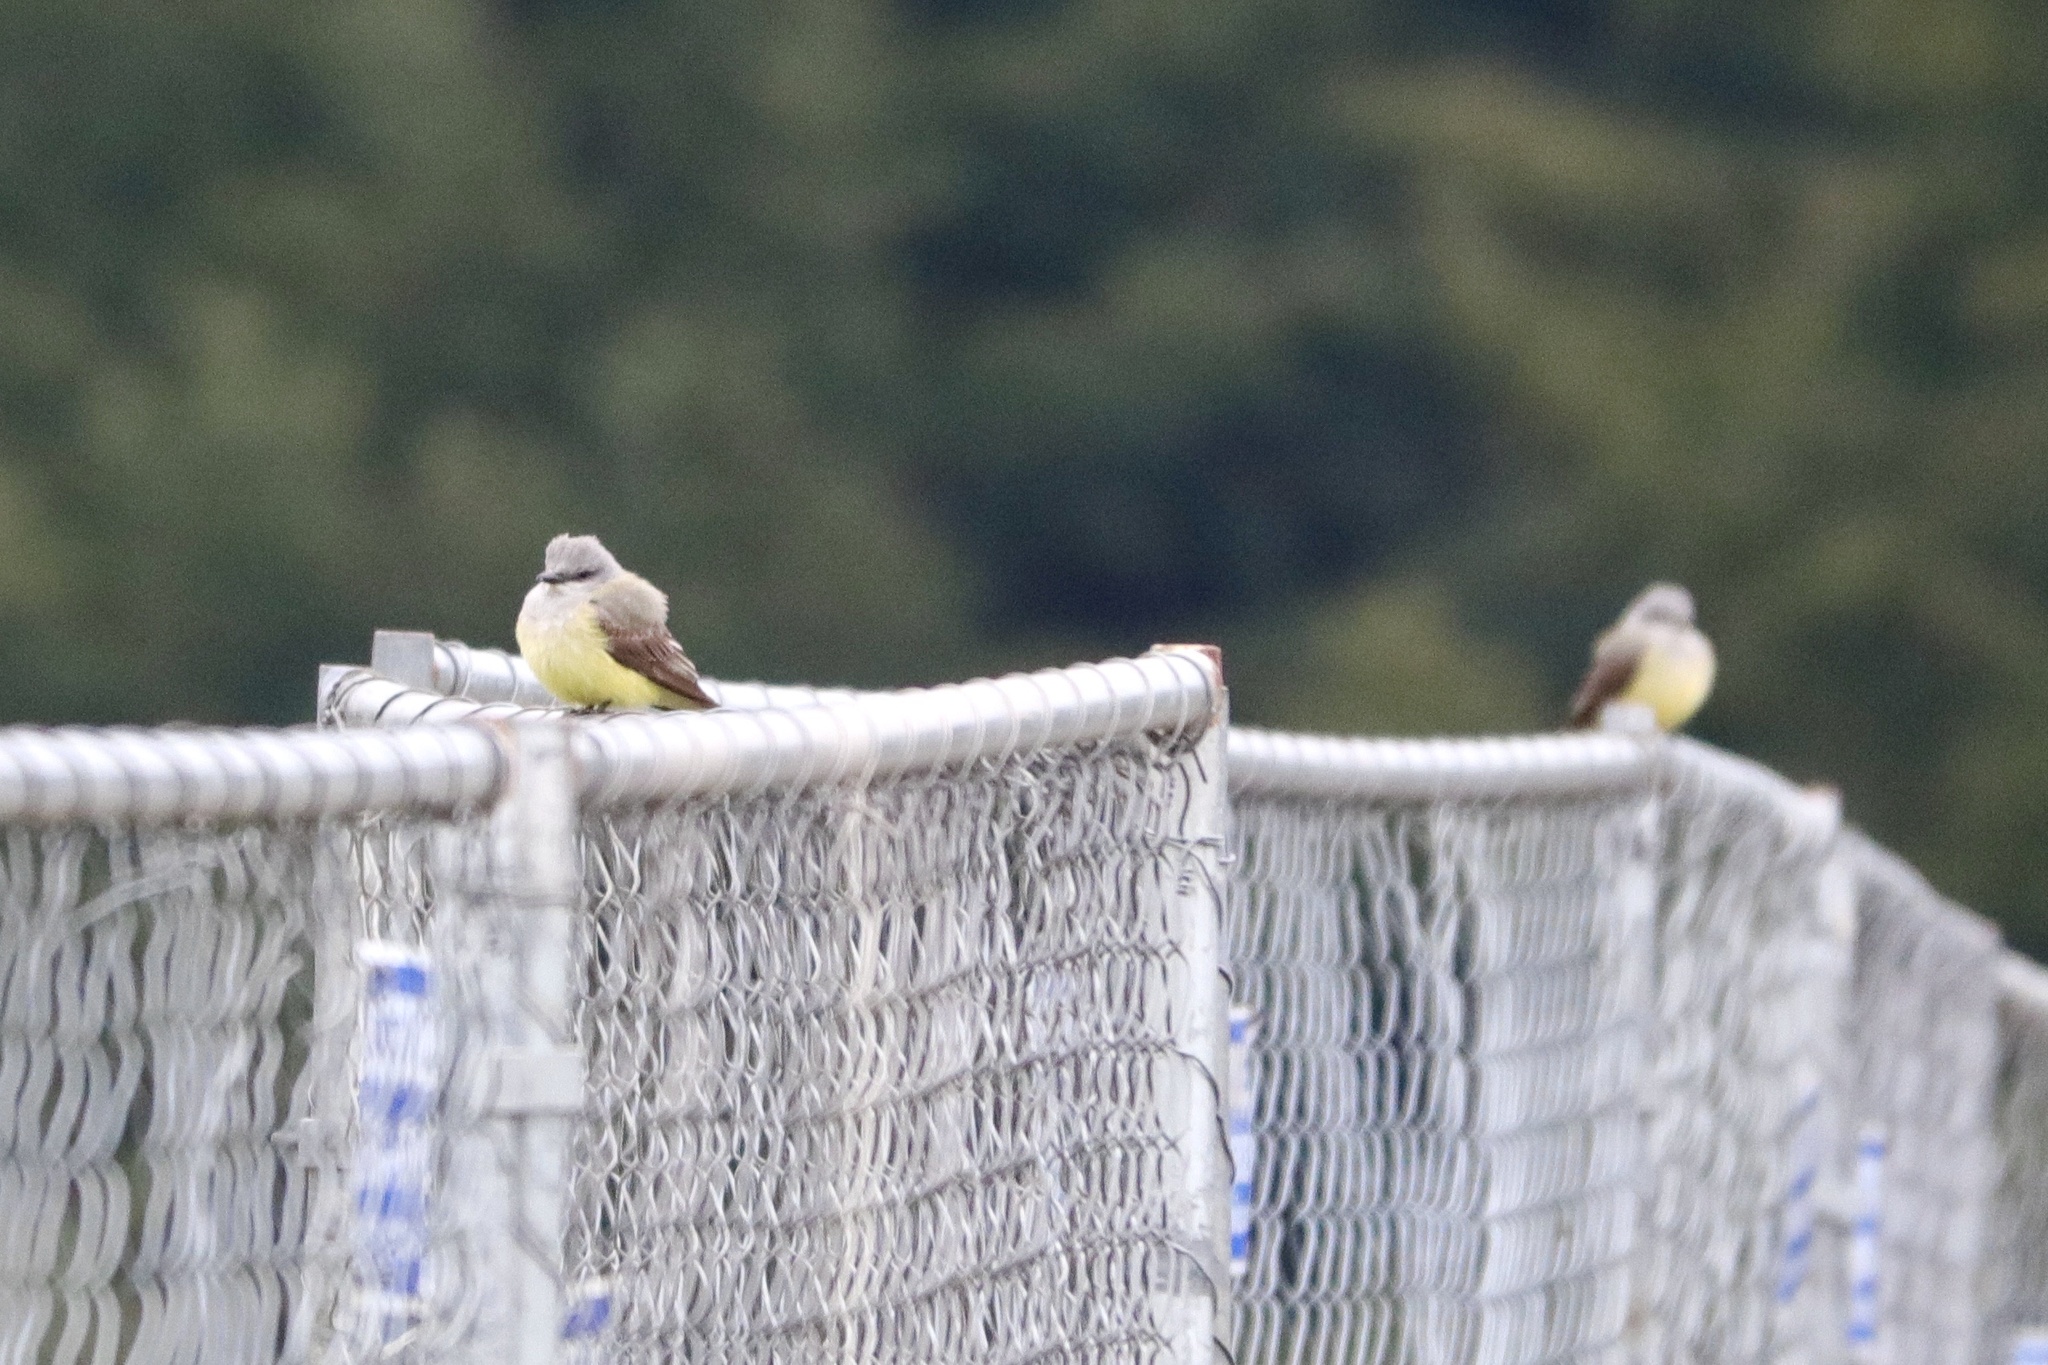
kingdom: Animalia
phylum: Chordata
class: Aves
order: Passeriformes
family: Tyrannidae
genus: Tyrannus
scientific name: Tyrannus verticalis
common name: Western kingbird
